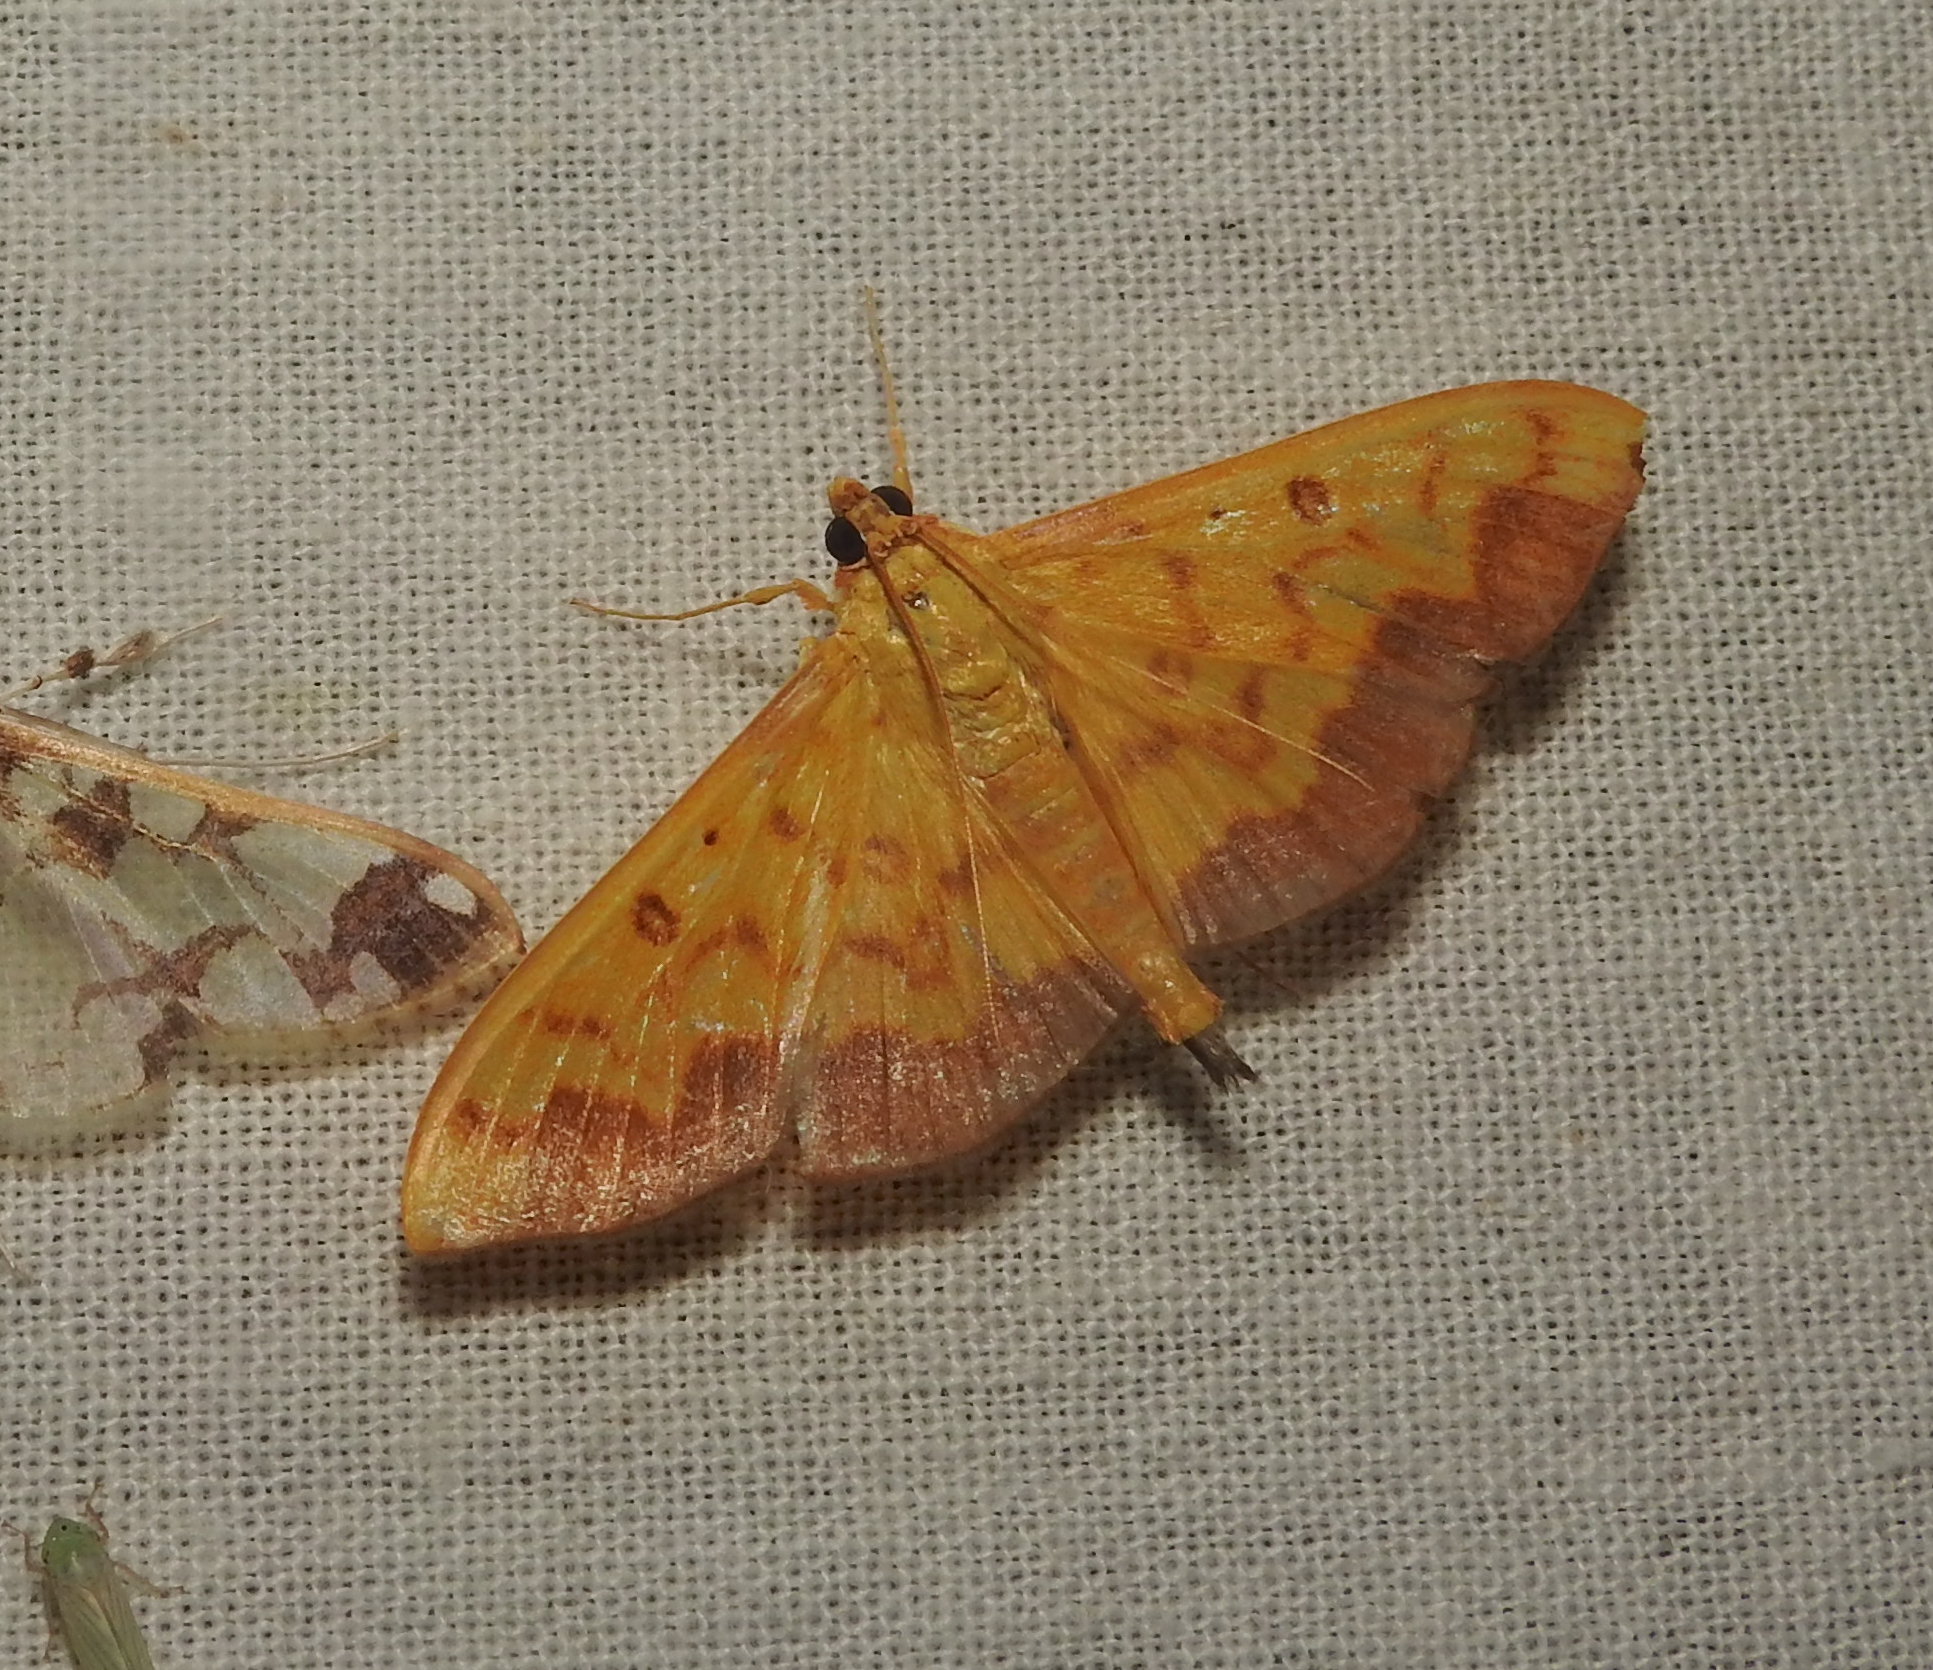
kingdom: Animalia
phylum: Arthropoda
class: Insecta
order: Lepidoptera
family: Crambidae
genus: Botyodes
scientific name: Botyodes asialis
